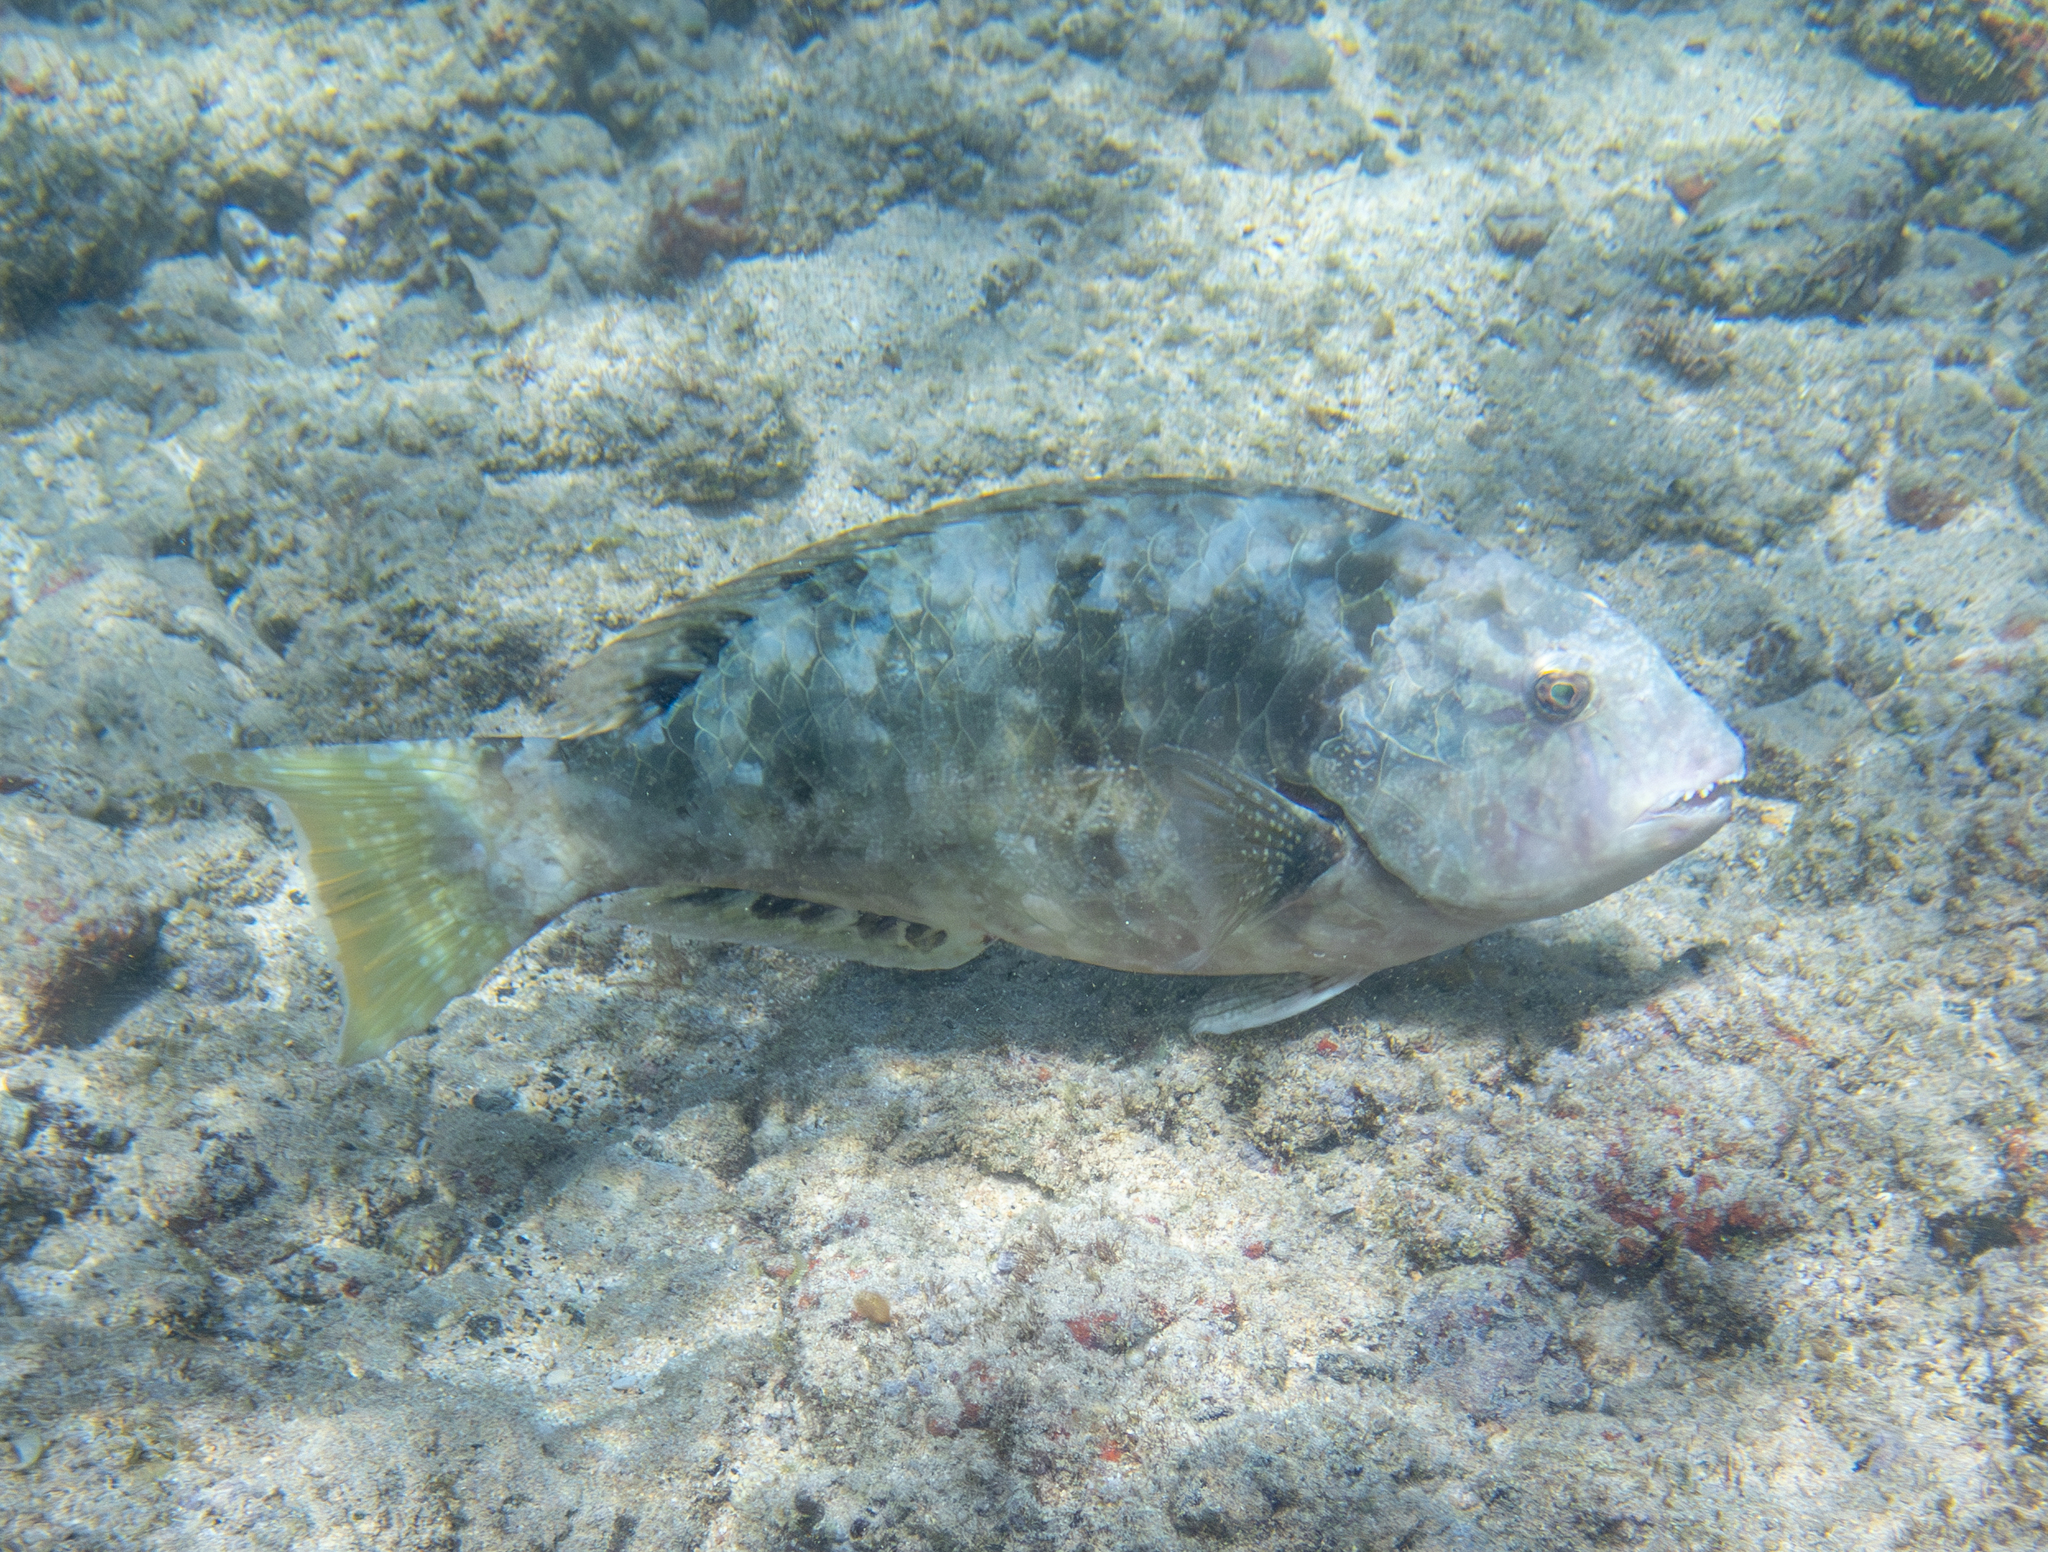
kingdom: Animalia
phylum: Chordata
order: Perciformes
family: Scaridae
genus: Calotomus
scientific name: Calotomus carolinus
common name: Bucktooth
